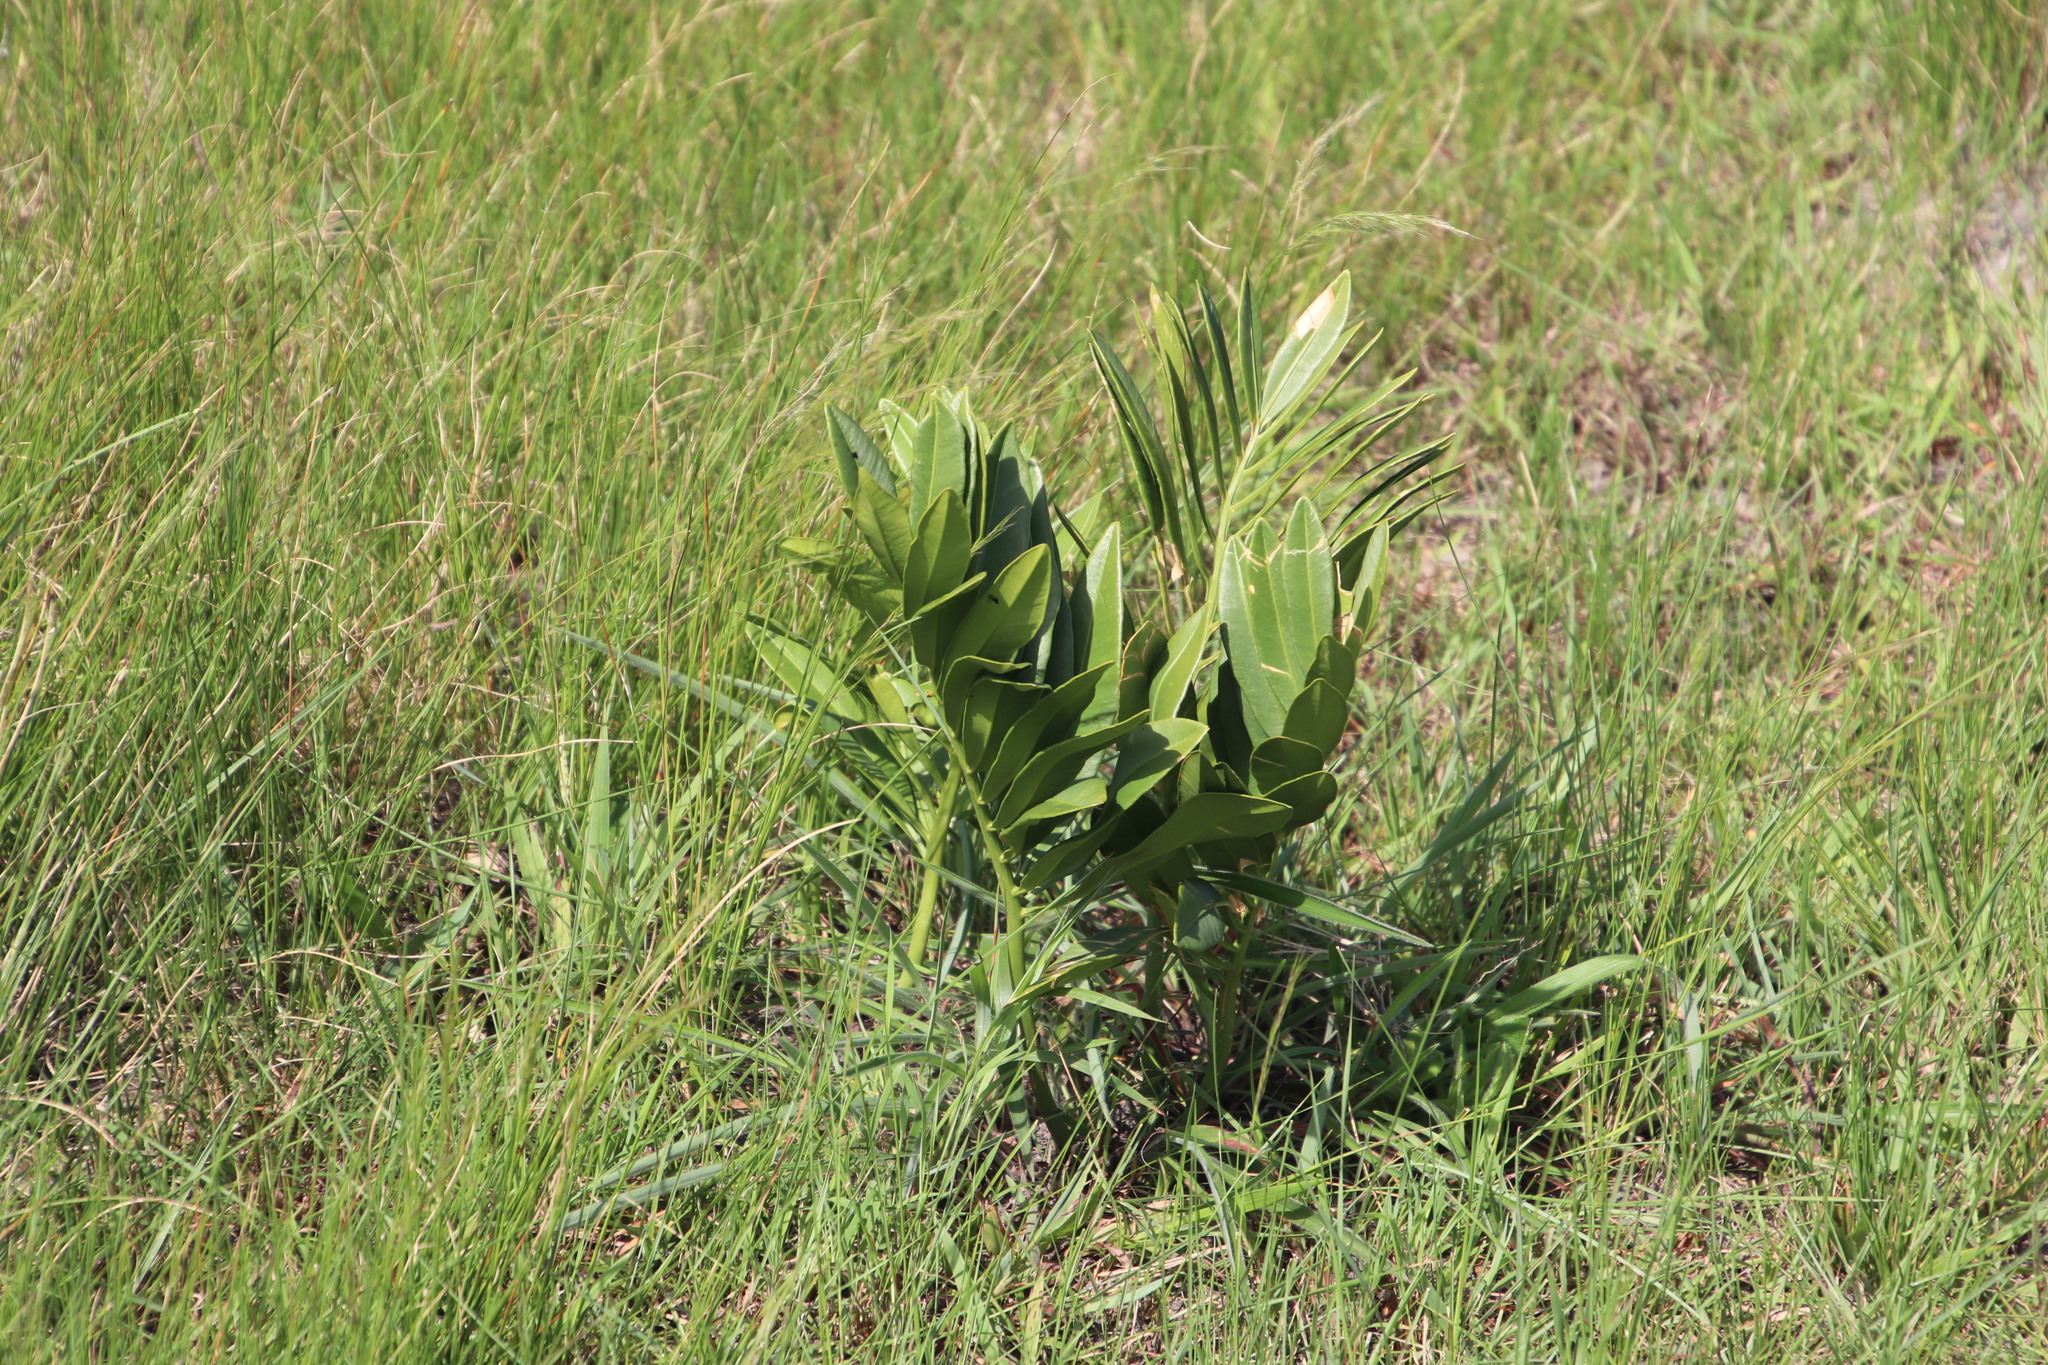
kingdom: Plantae
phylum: Tracheophyta
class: Cycadopsida
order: Cycadales
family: Zamiaceae
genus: Stangeria
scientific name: Stangeria eriopus
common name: Natal grass cycad
